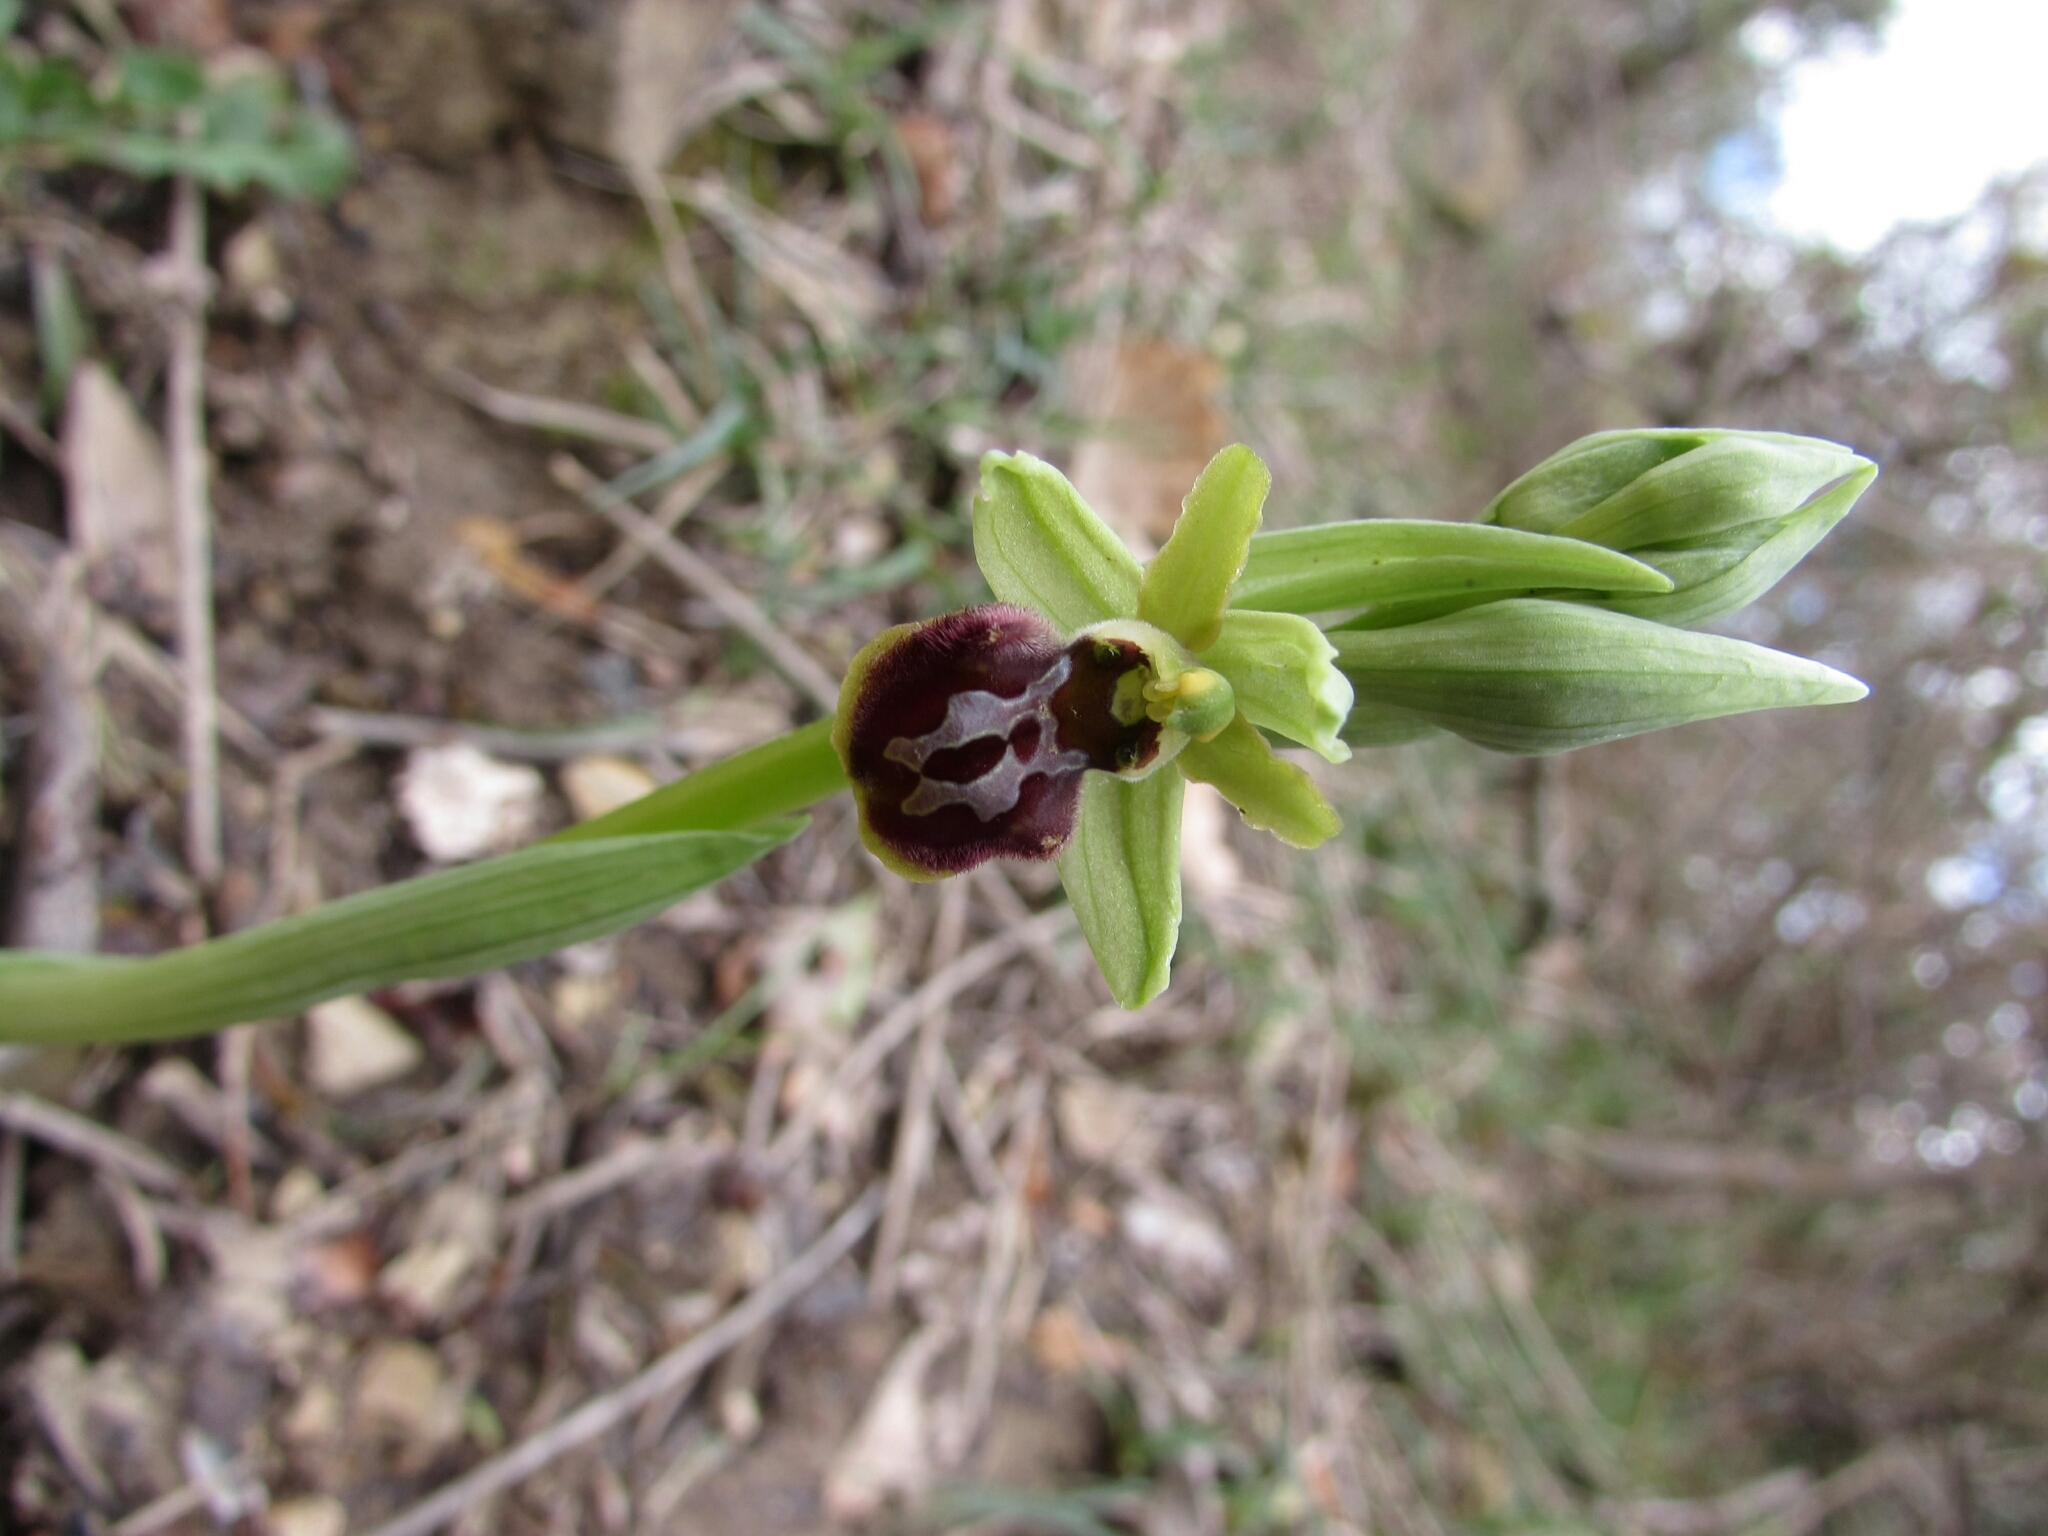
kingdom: Plantae
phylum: Tracheophyta
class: Liliopsida
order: Asparagales
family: Orchidaceae
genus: Ophrys
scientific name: Ophrys sphegodes
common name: Early spider-orchid
